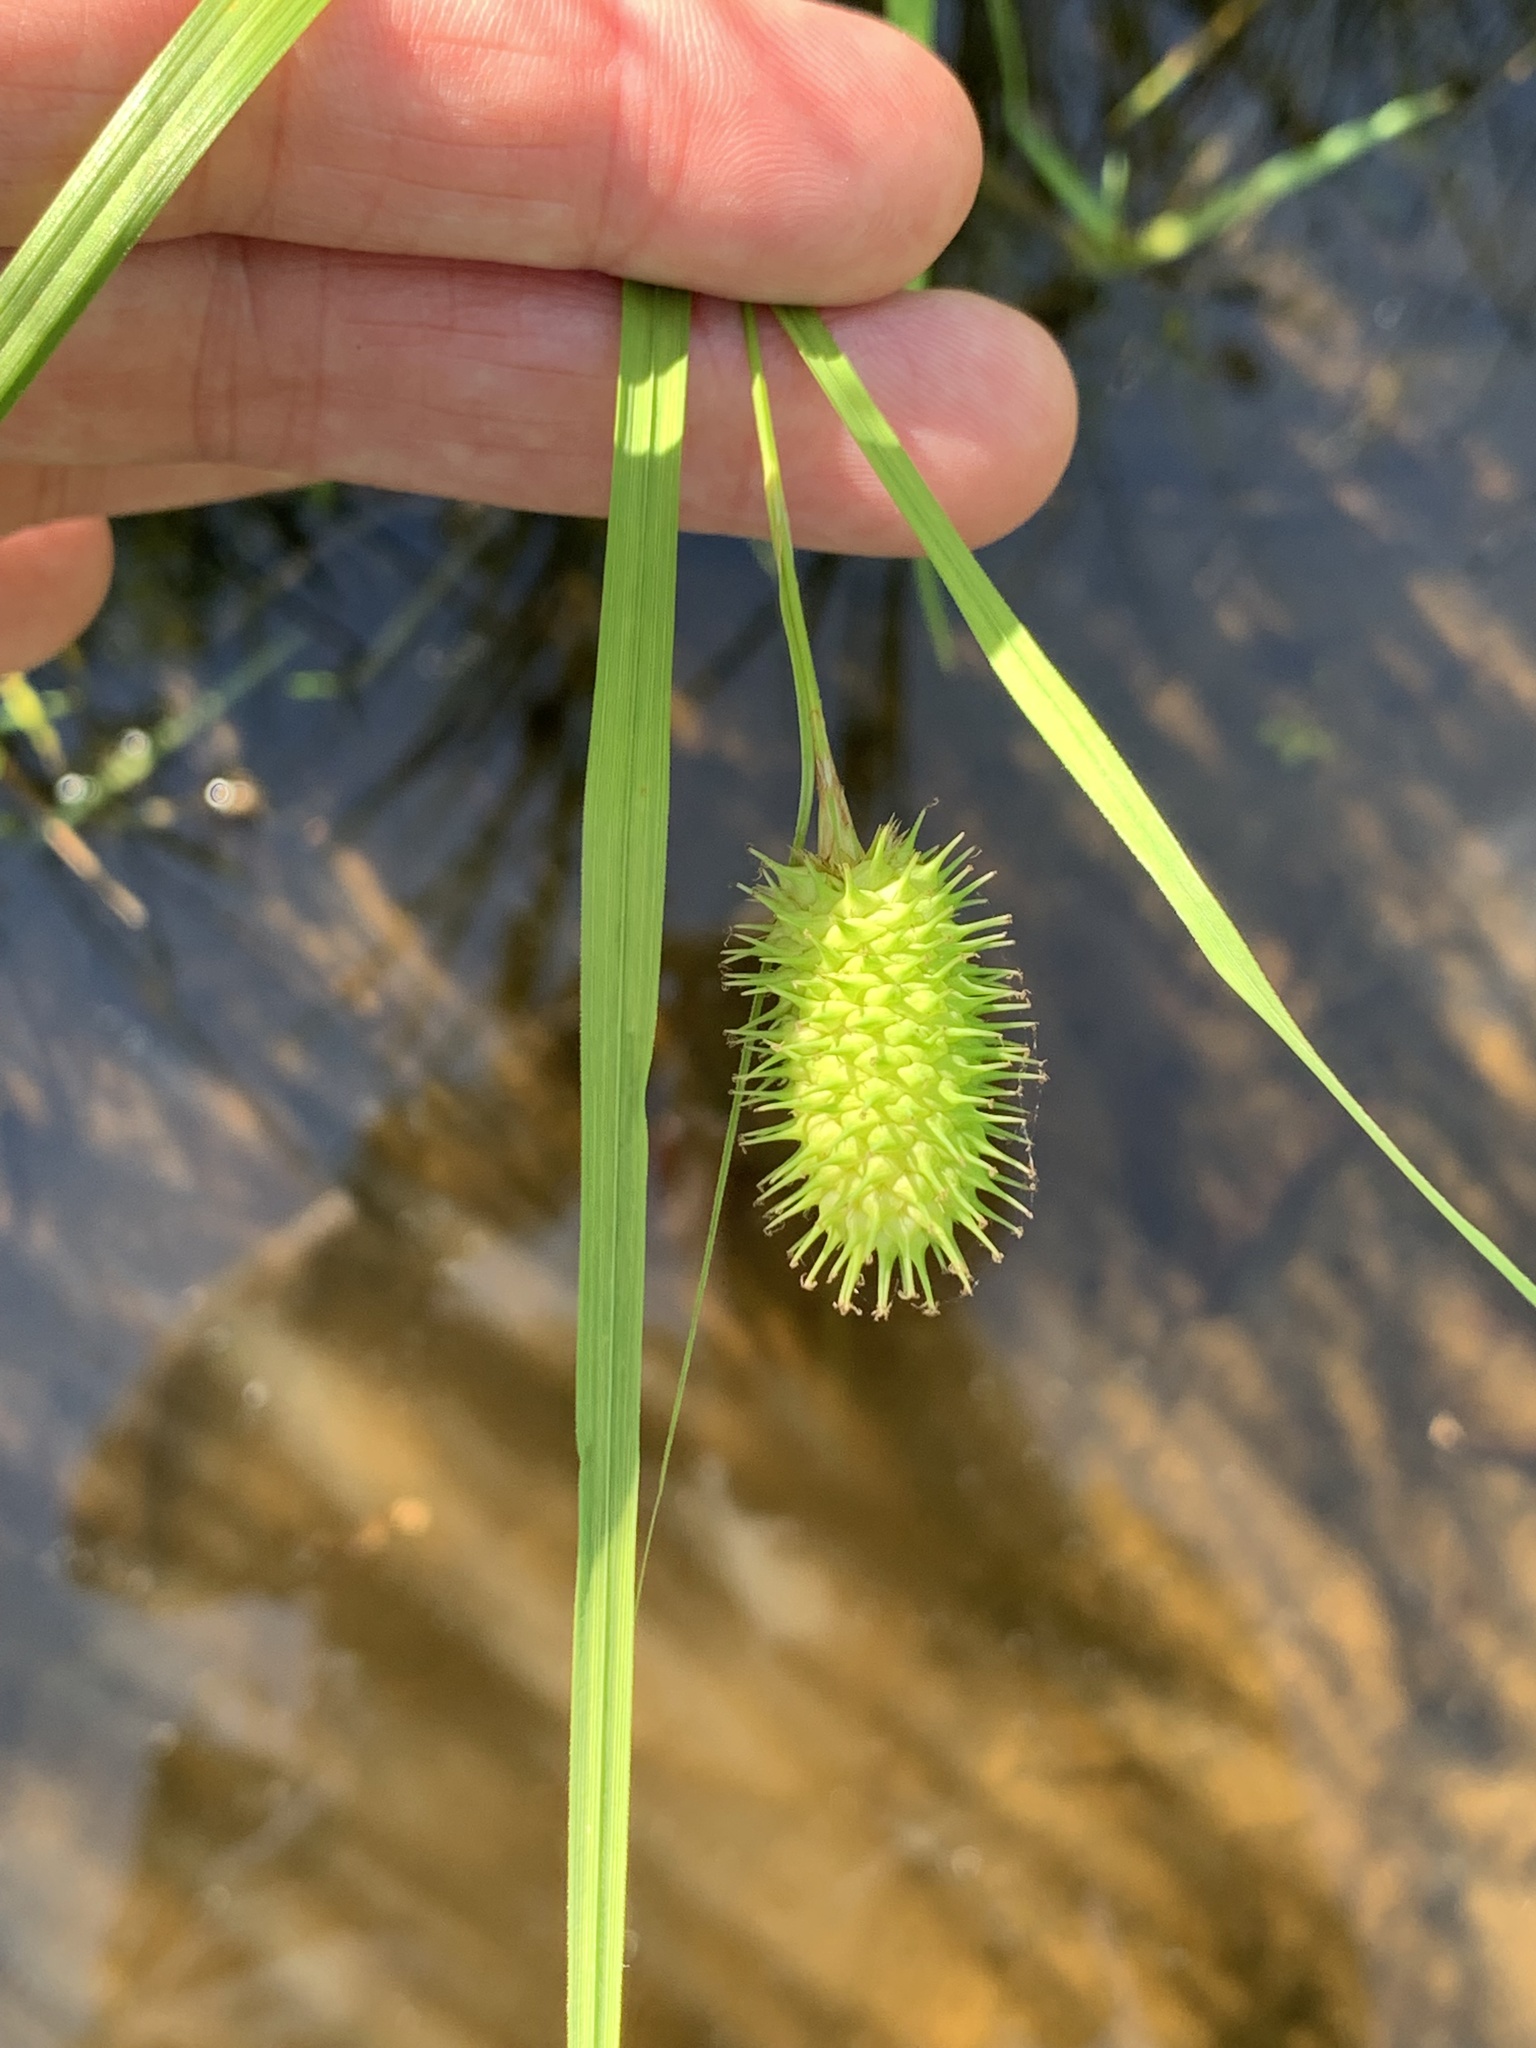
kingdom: Plantae
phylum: Tracheophyta
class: Liliopsida
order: Poales
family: Cyperaceae
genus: Carex
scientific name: Carex squarrosa
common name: Narrow-leaved cattail sedge
